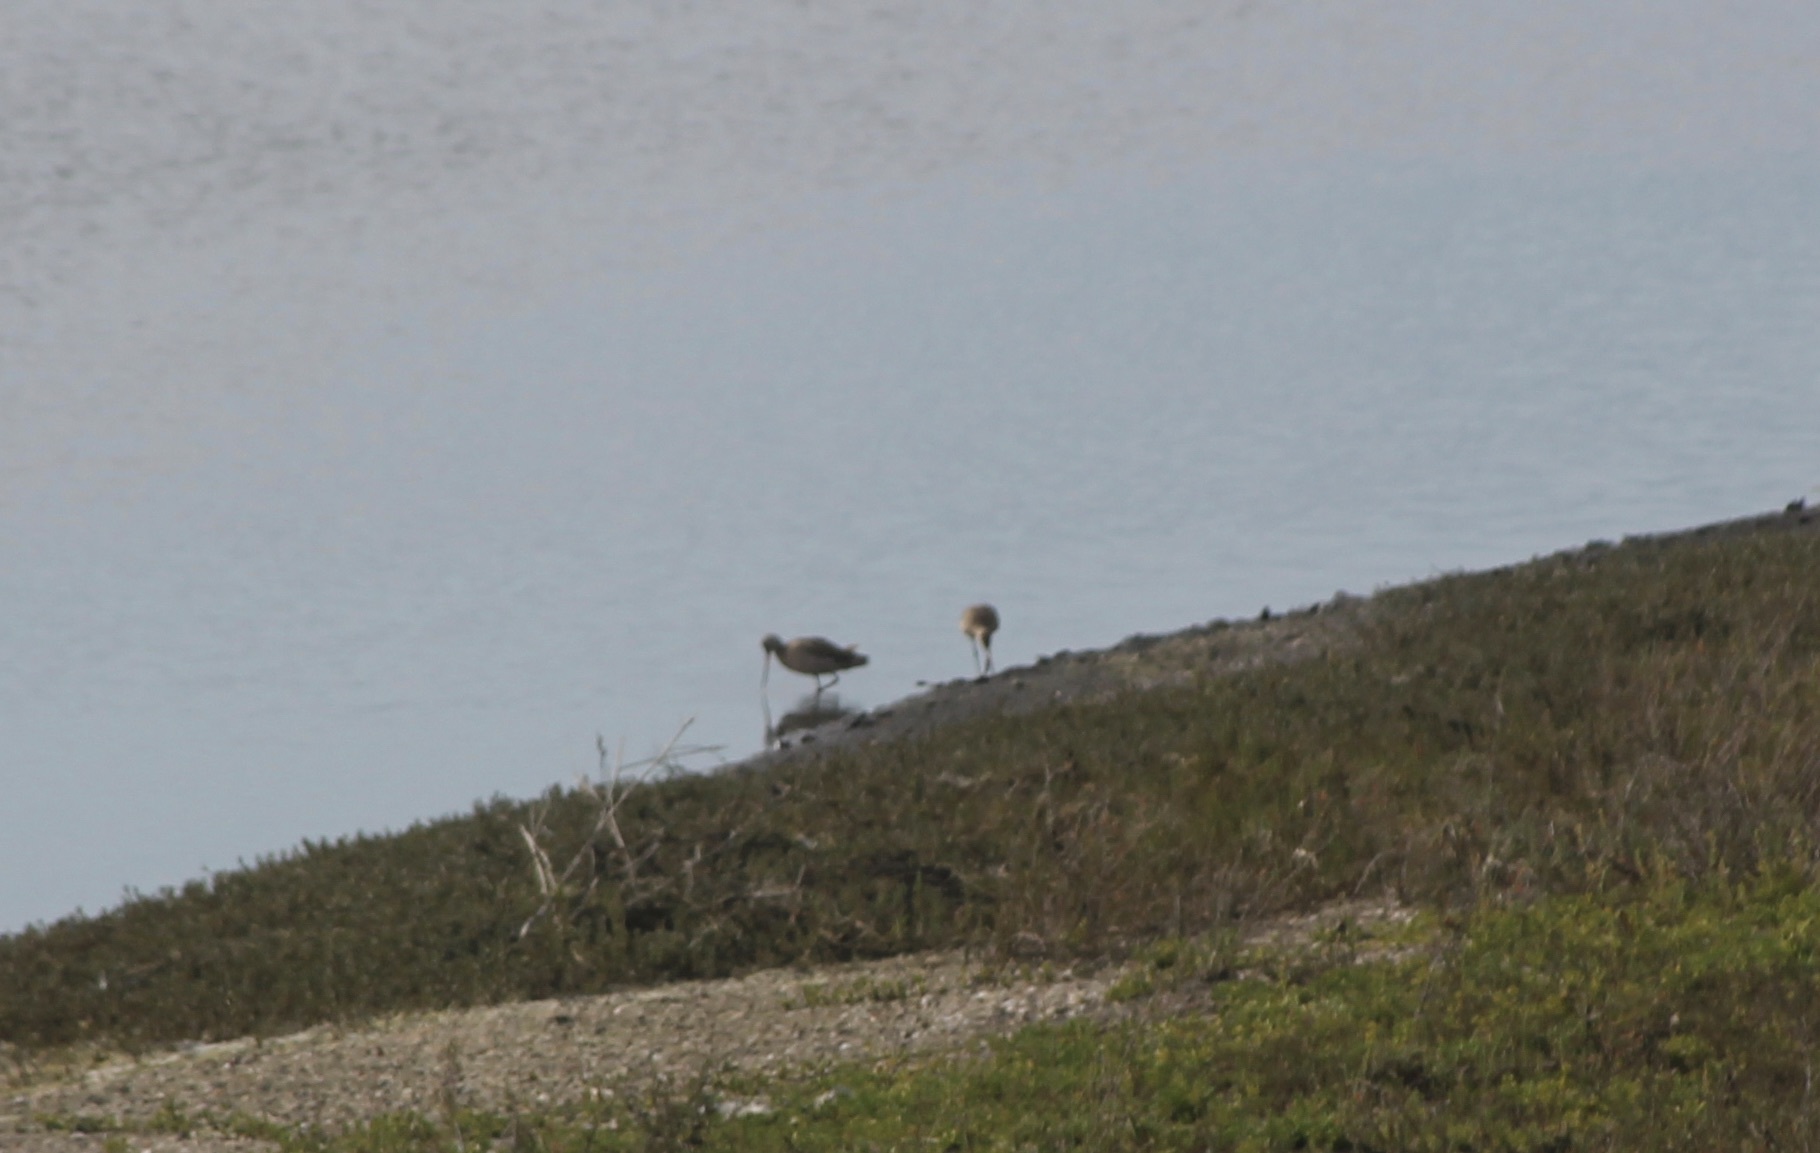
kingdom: Animalia
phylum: Chordata
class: Aves
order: Charadriiformes
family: Scolopacidae
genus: Limosa
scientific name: Limosa fedoa
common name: Marbled godwit
